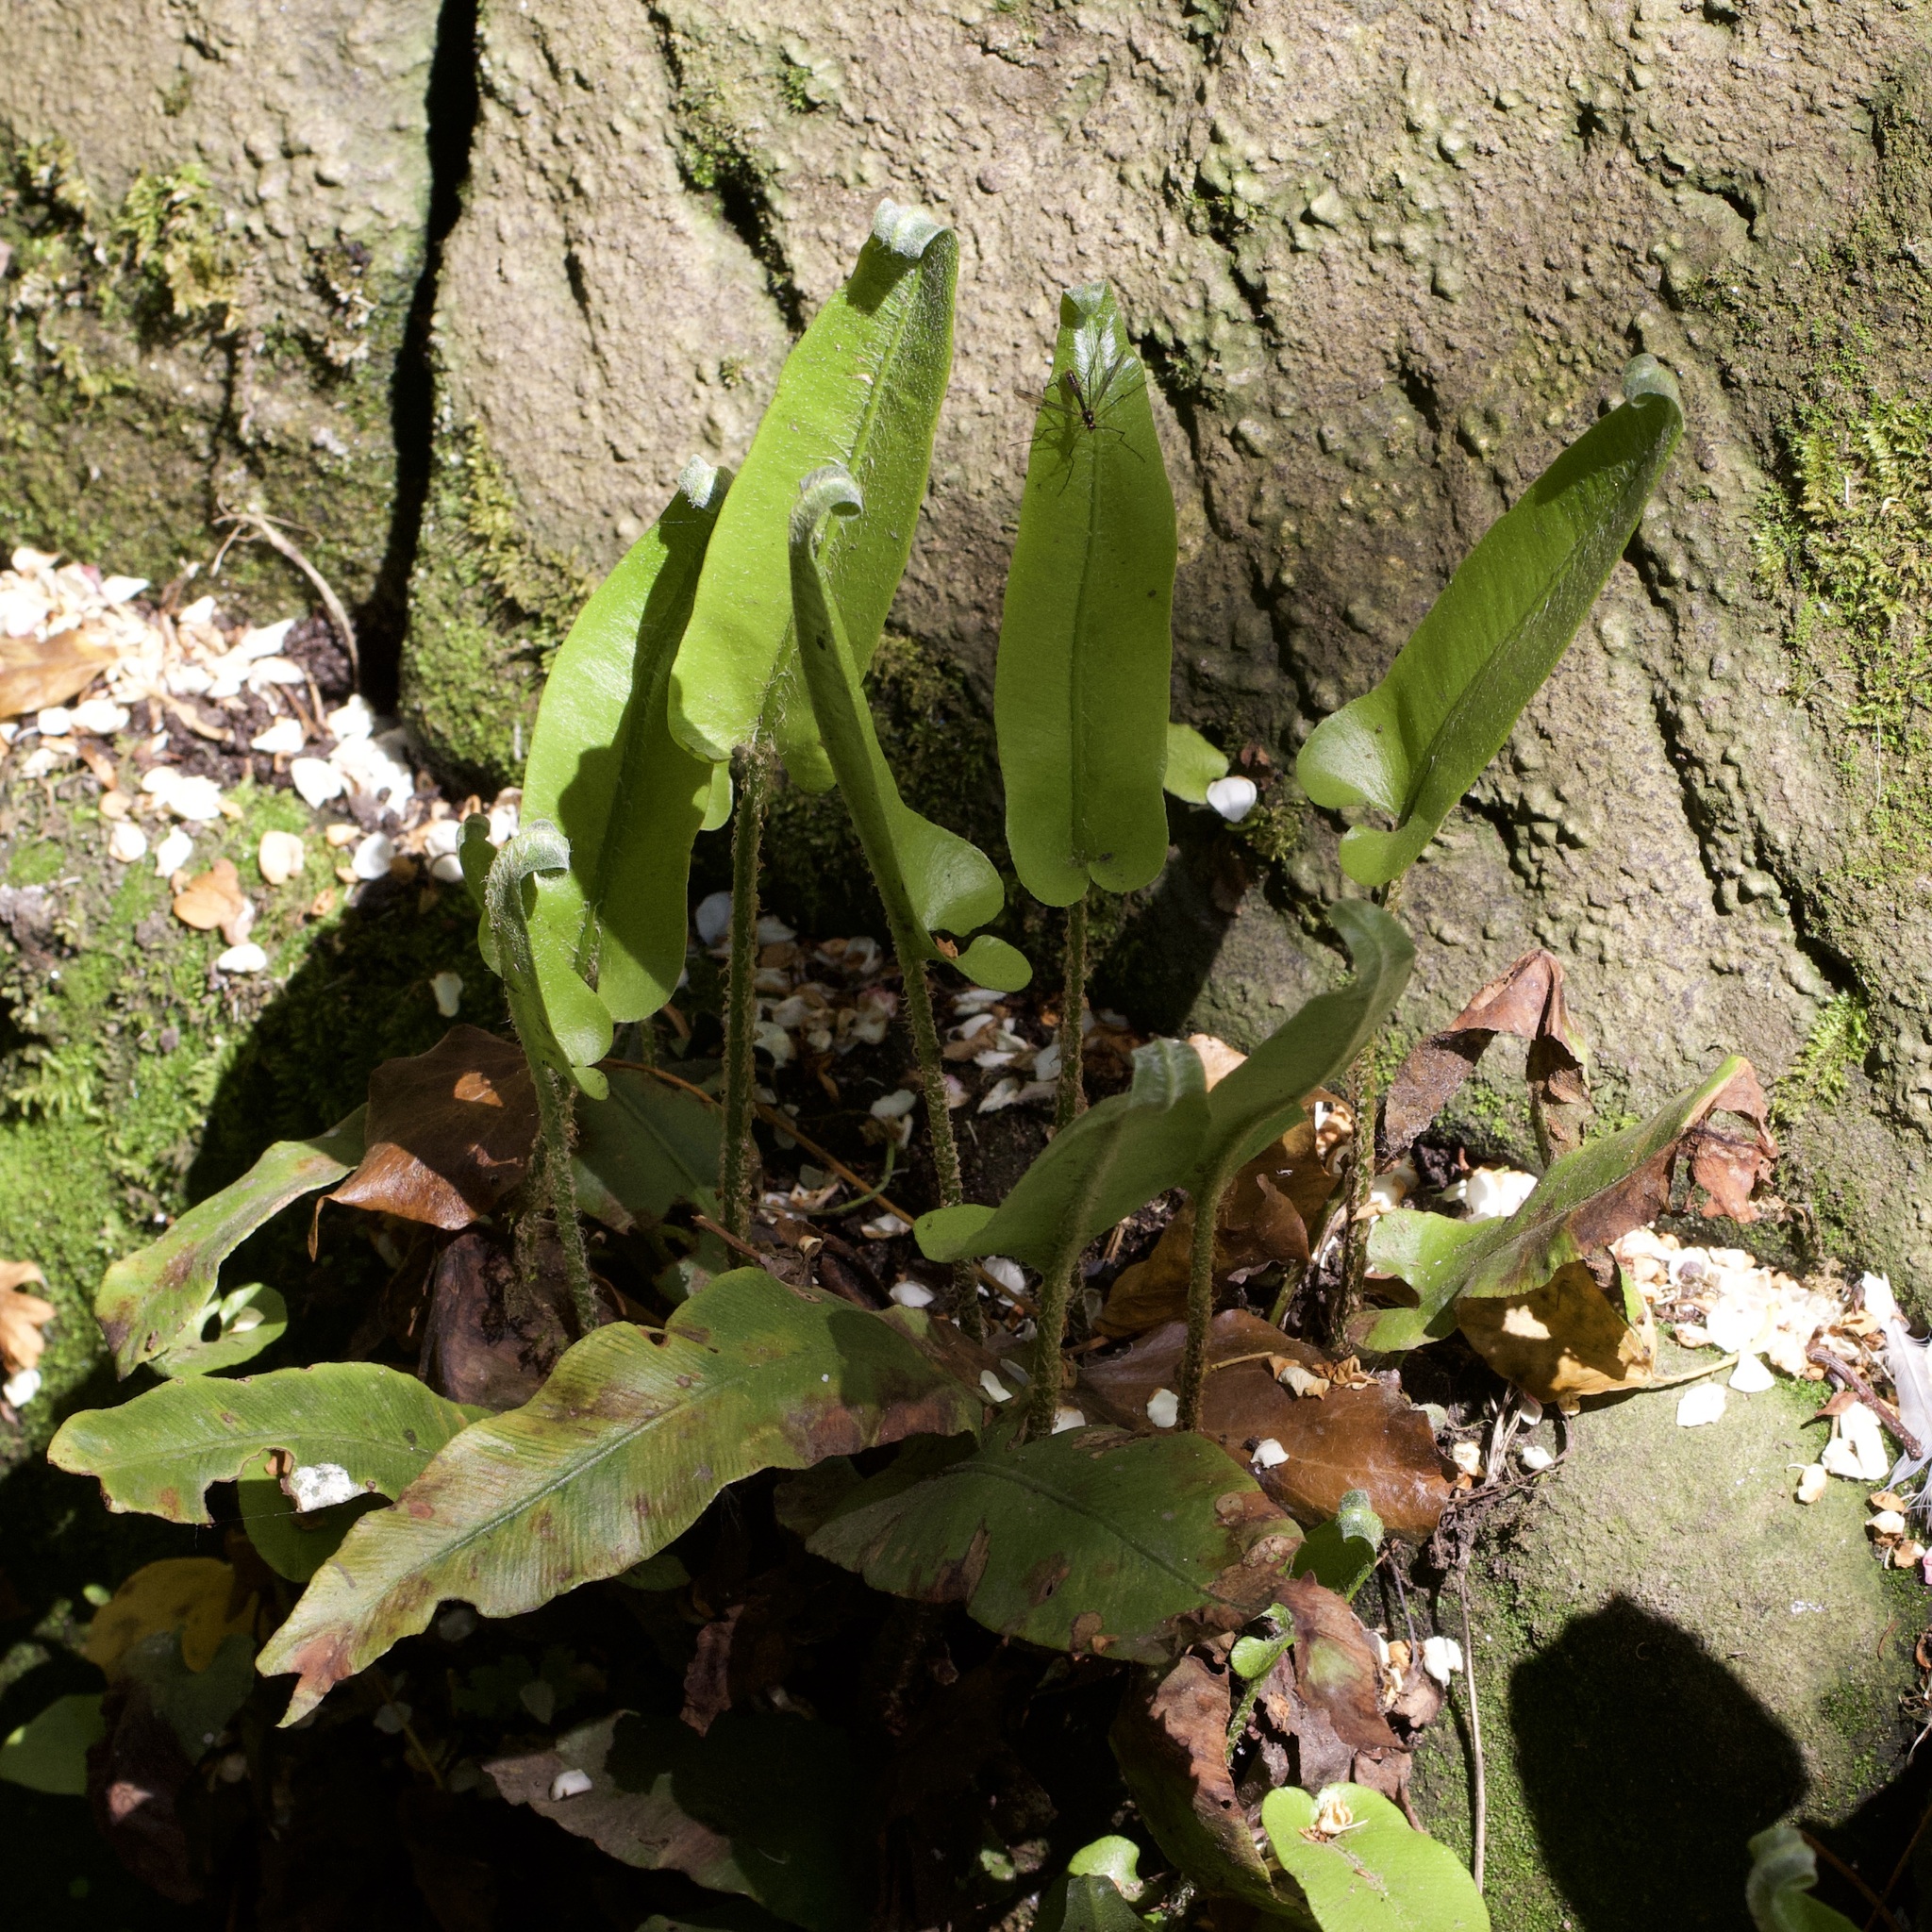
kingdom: Plantae
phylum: Tracheophyta
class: Polypodiopsida
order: Polypodiales
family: Aspleniaceae
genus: Asplenium
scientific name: Asplenium scolopendrium
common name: Hart's-tongue fern
